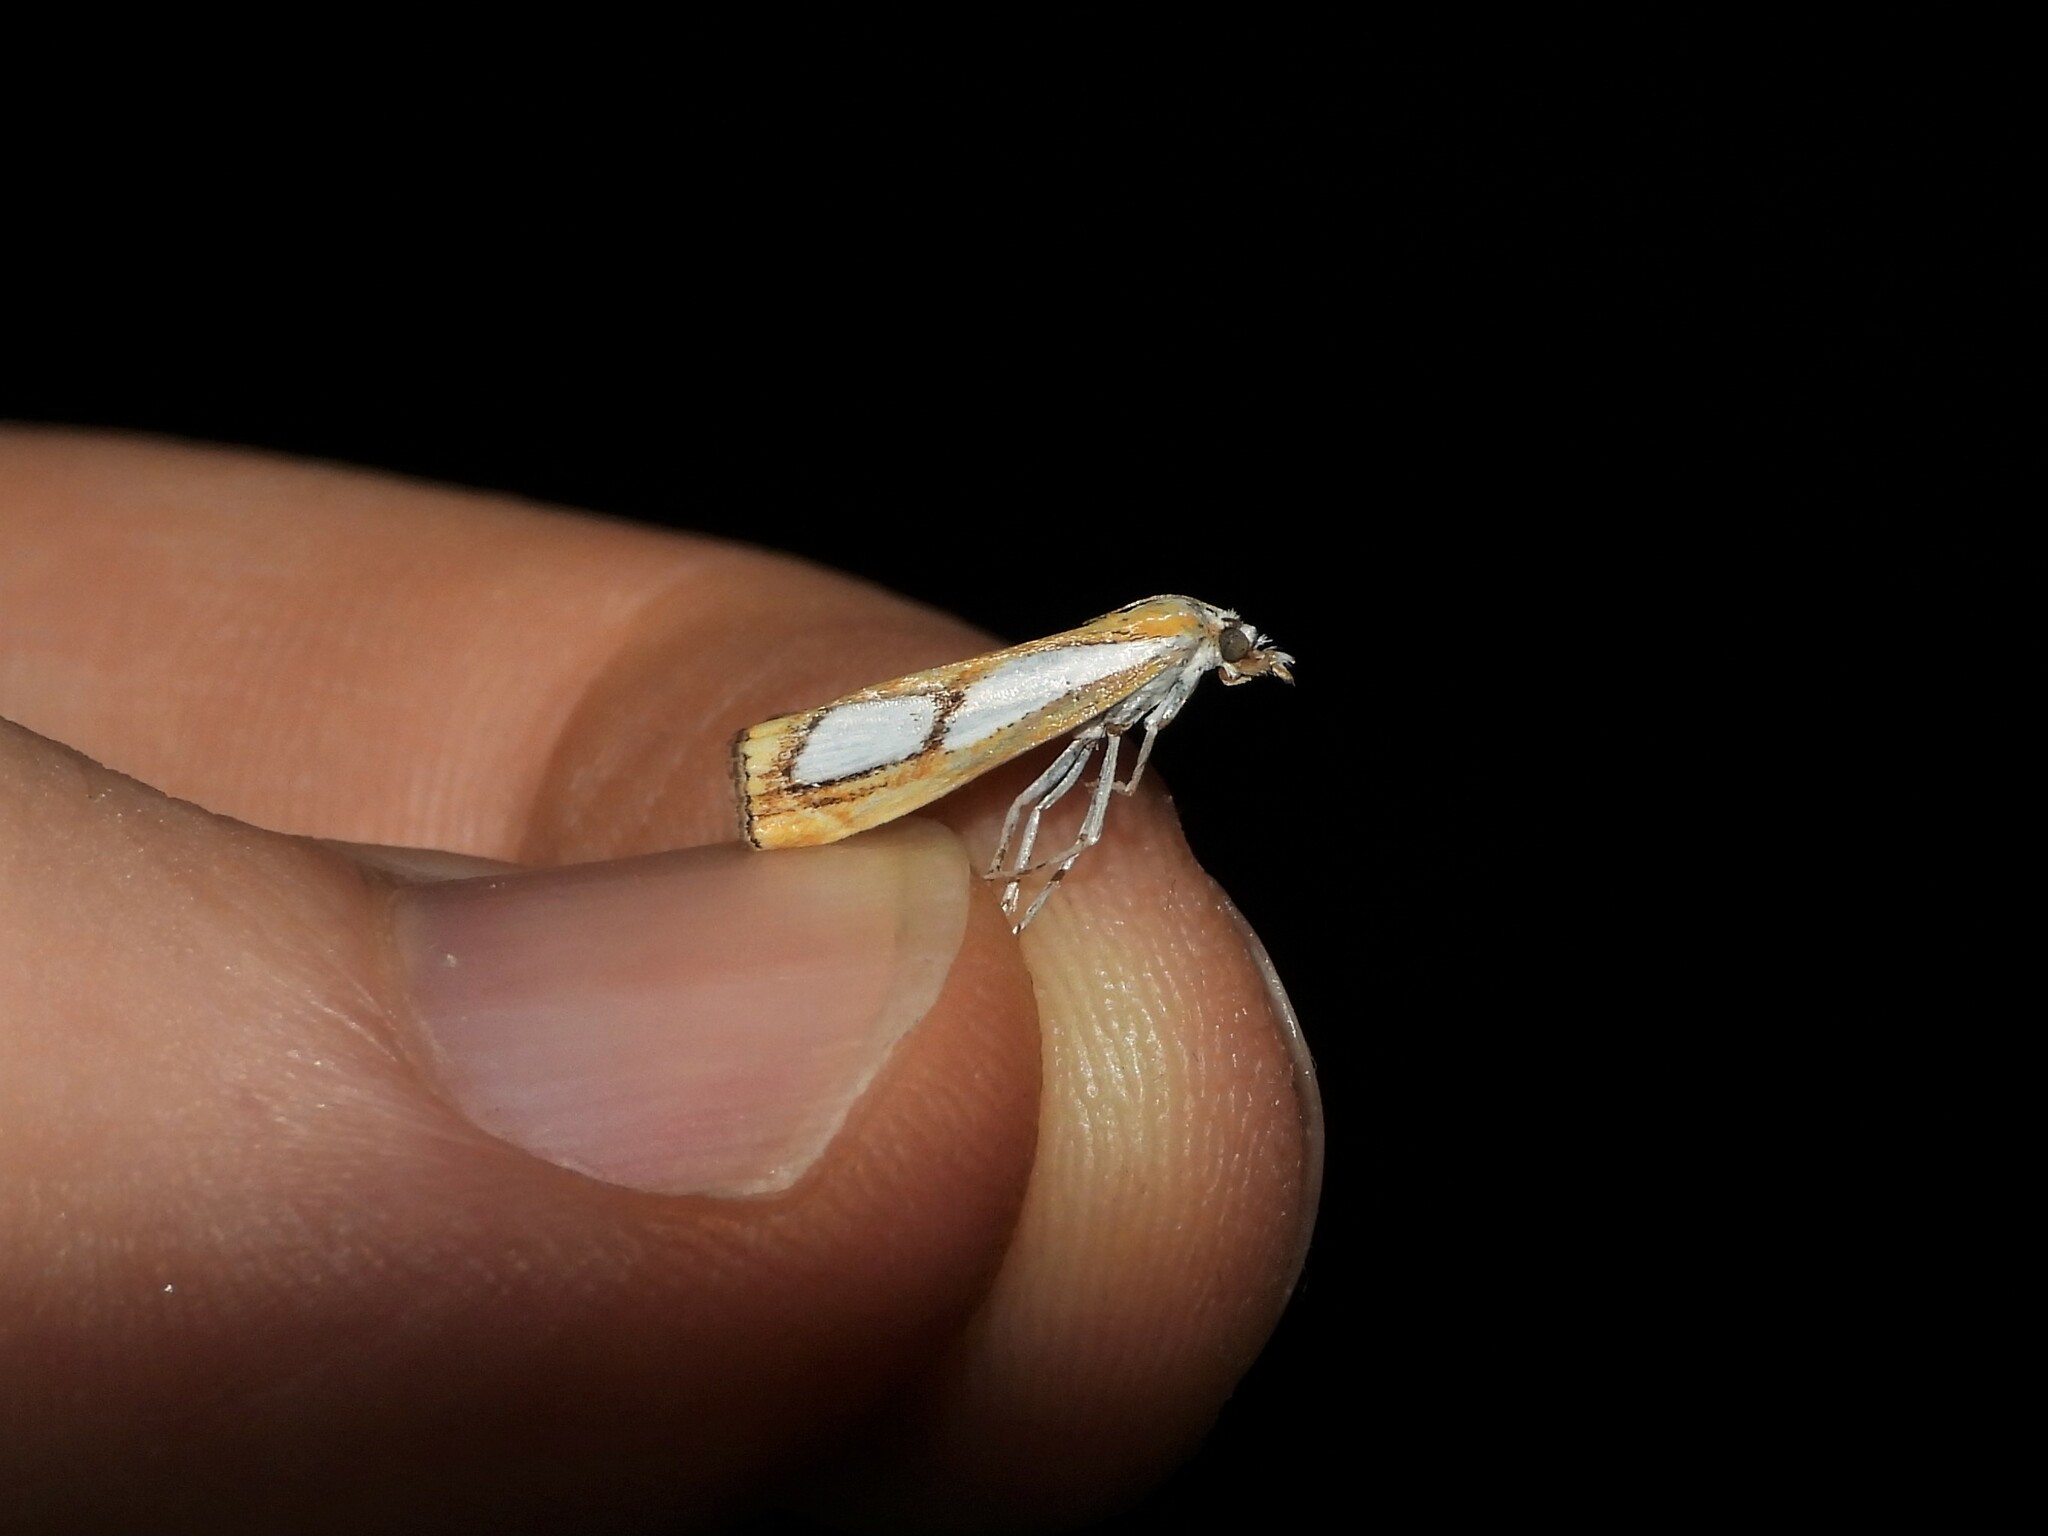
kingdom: Animalia
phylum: Arthropoda
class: Insecta
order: Lepidoptera
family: Crambidae
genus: Catoptria
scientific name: Catoptria pinella
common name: Pearl grass-veneer
